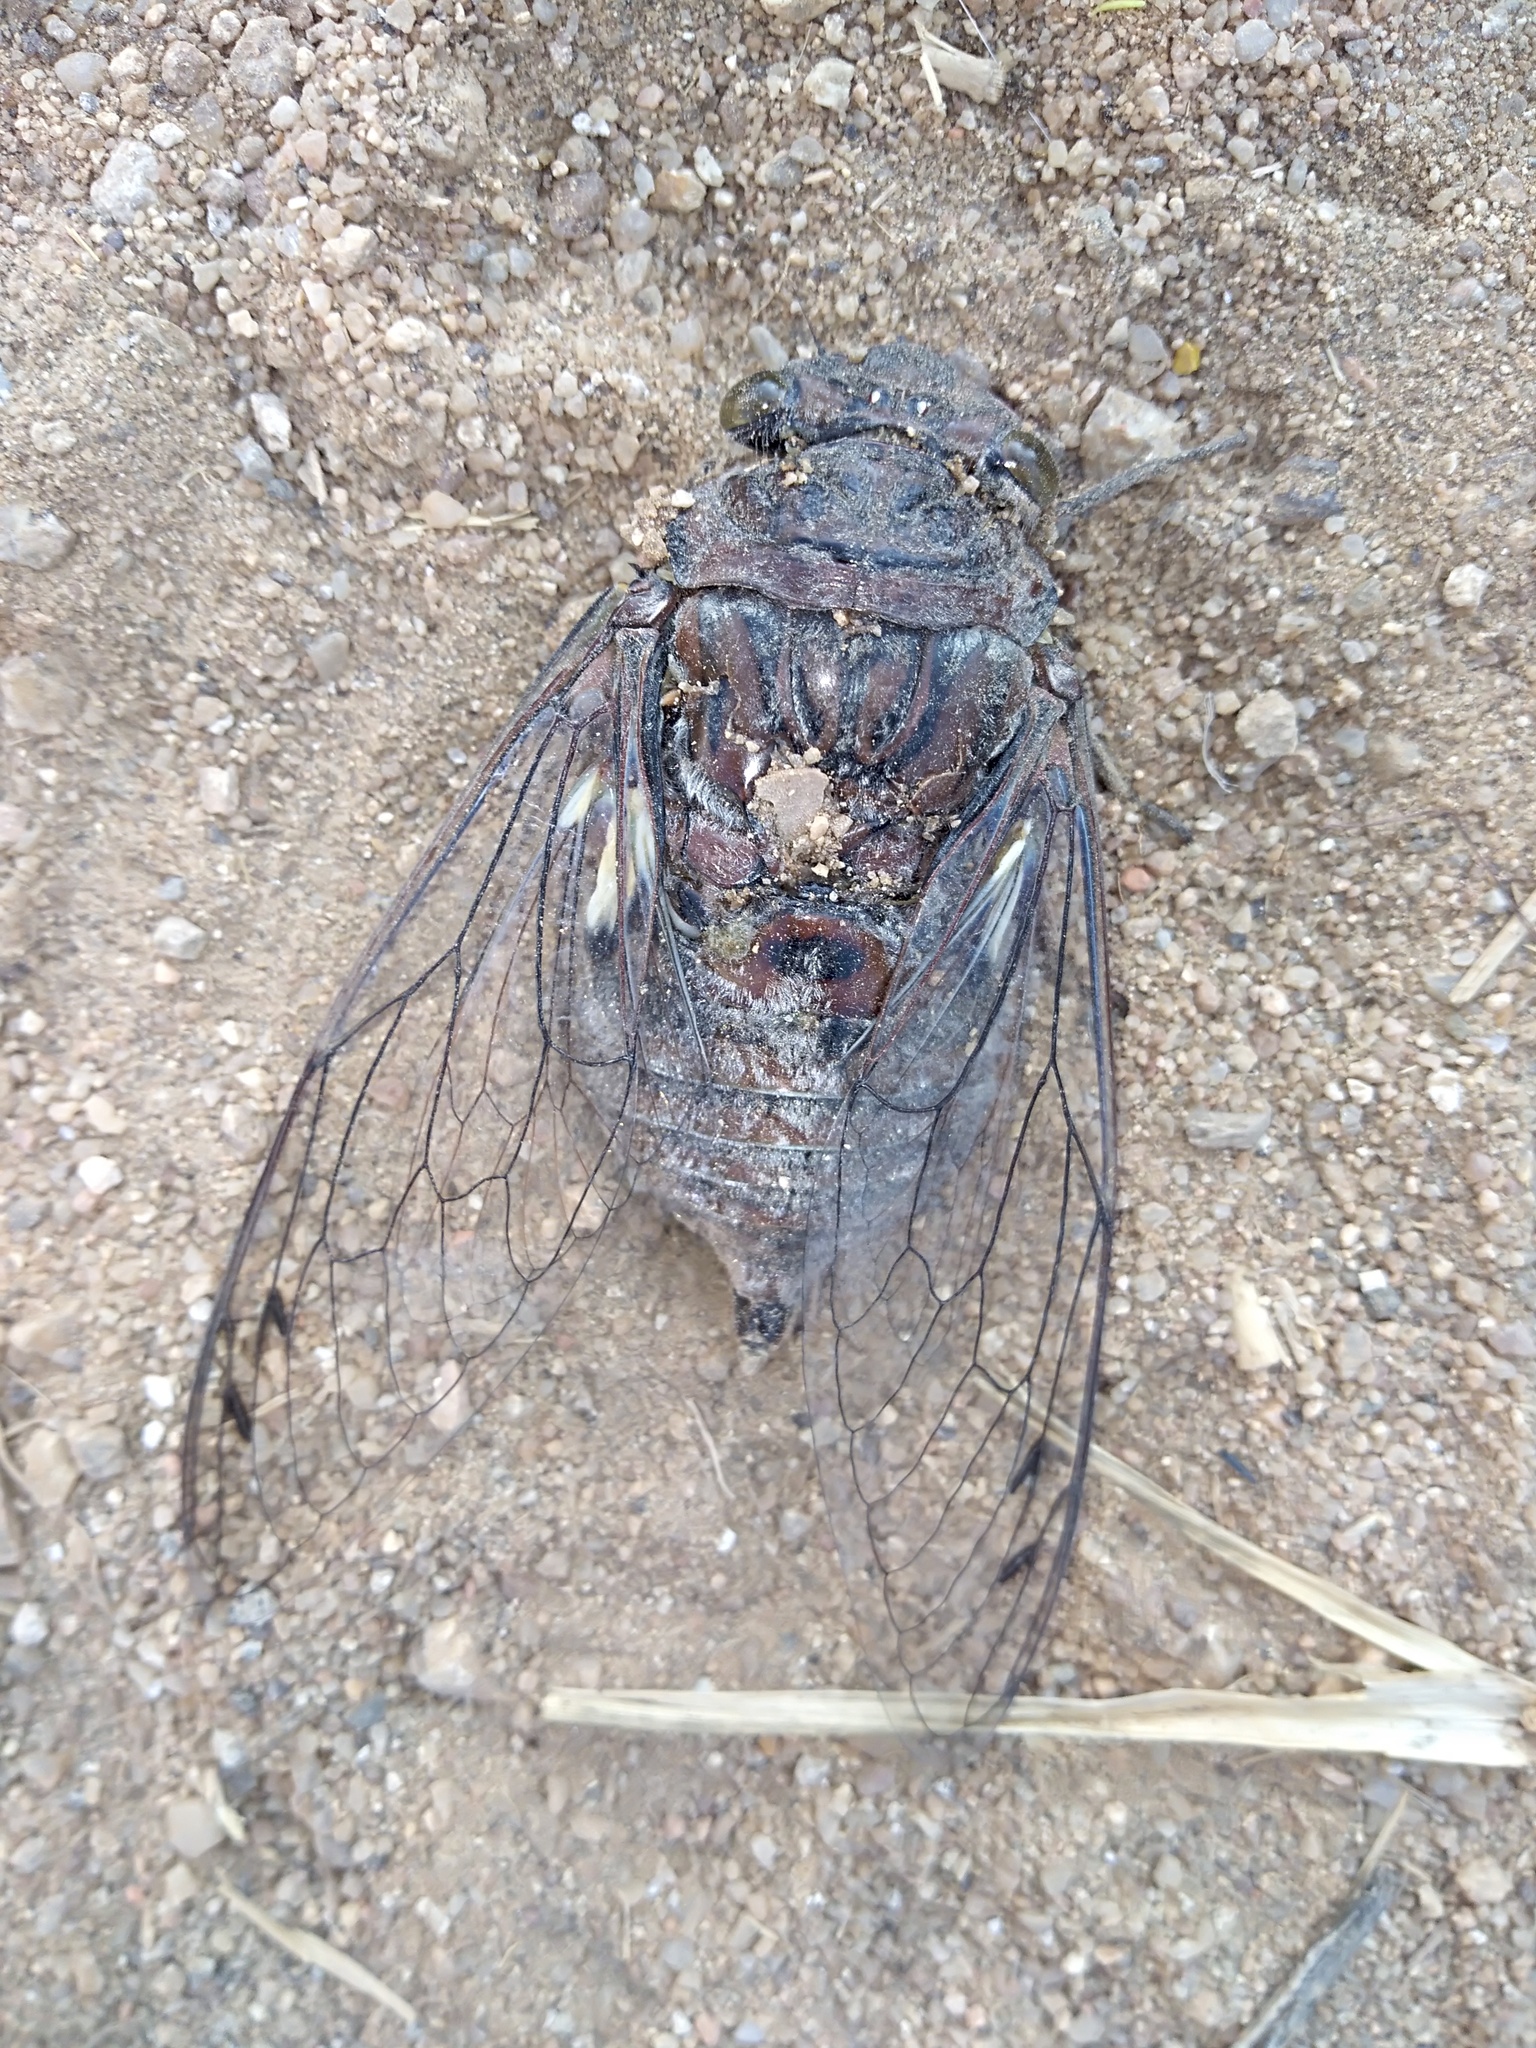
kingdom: Animalia
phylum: Arthropoda
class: Insecta
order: Hemiptera
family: Cicadidae
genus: Quesada
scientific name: Quesada gigas
